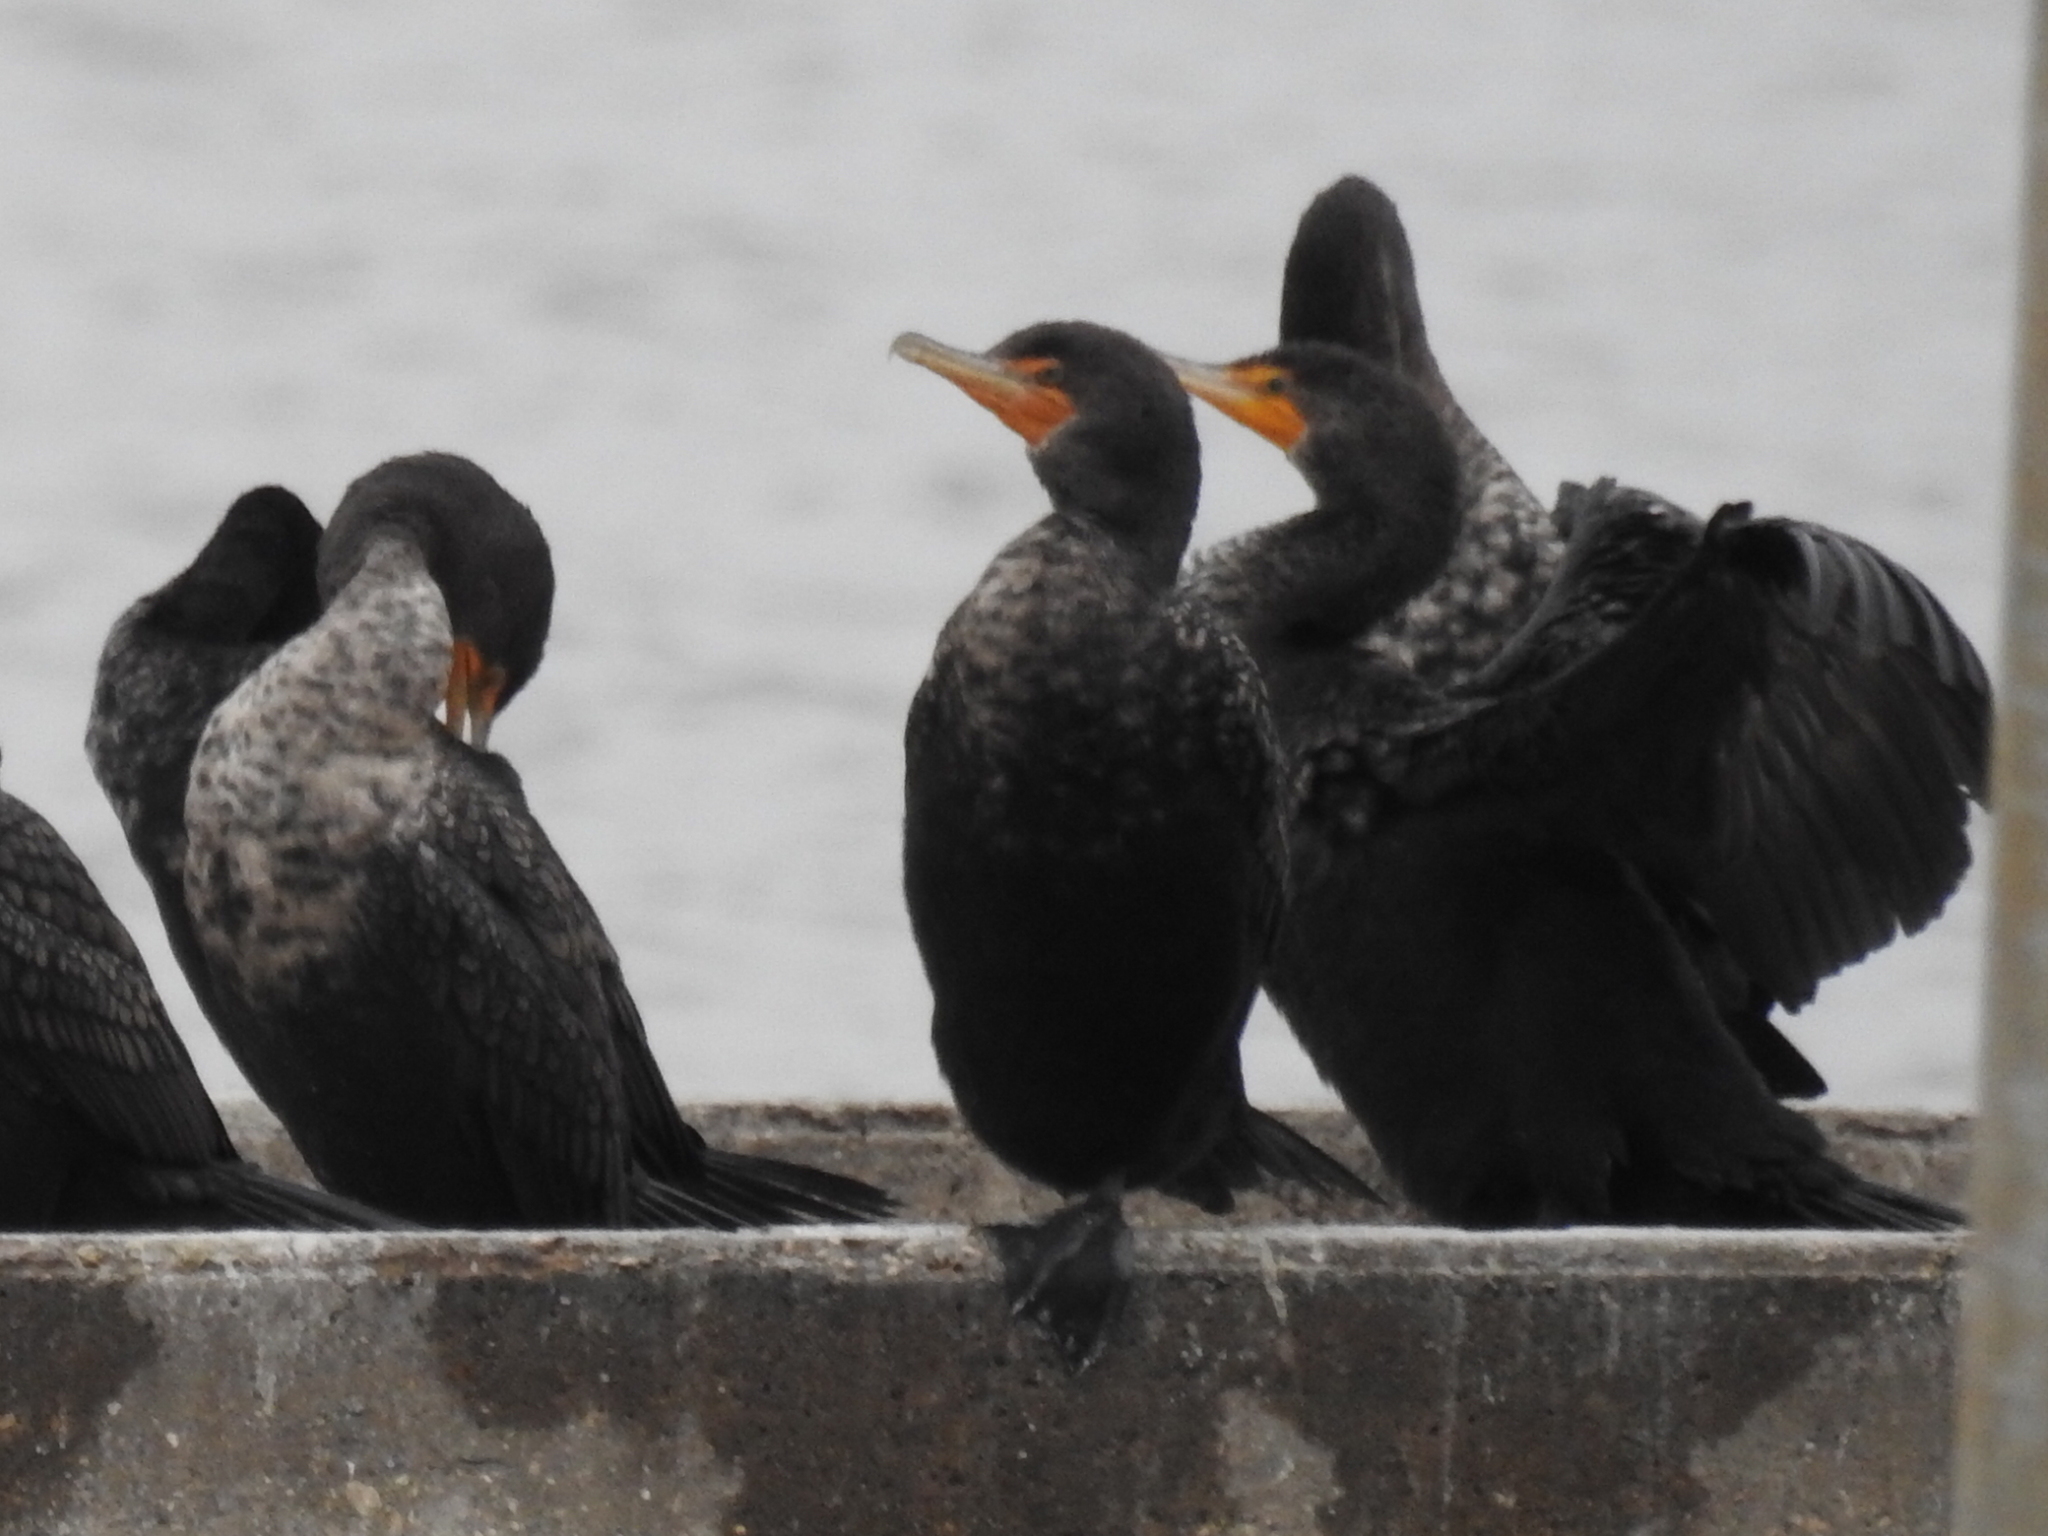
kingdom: Animalia
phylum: Chordata
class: Aves
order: Suliformes
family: Phalacrocoracidae
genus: Phalacrocorax
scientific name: Phalacrocorax auritus
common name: Double-crested cormorant
